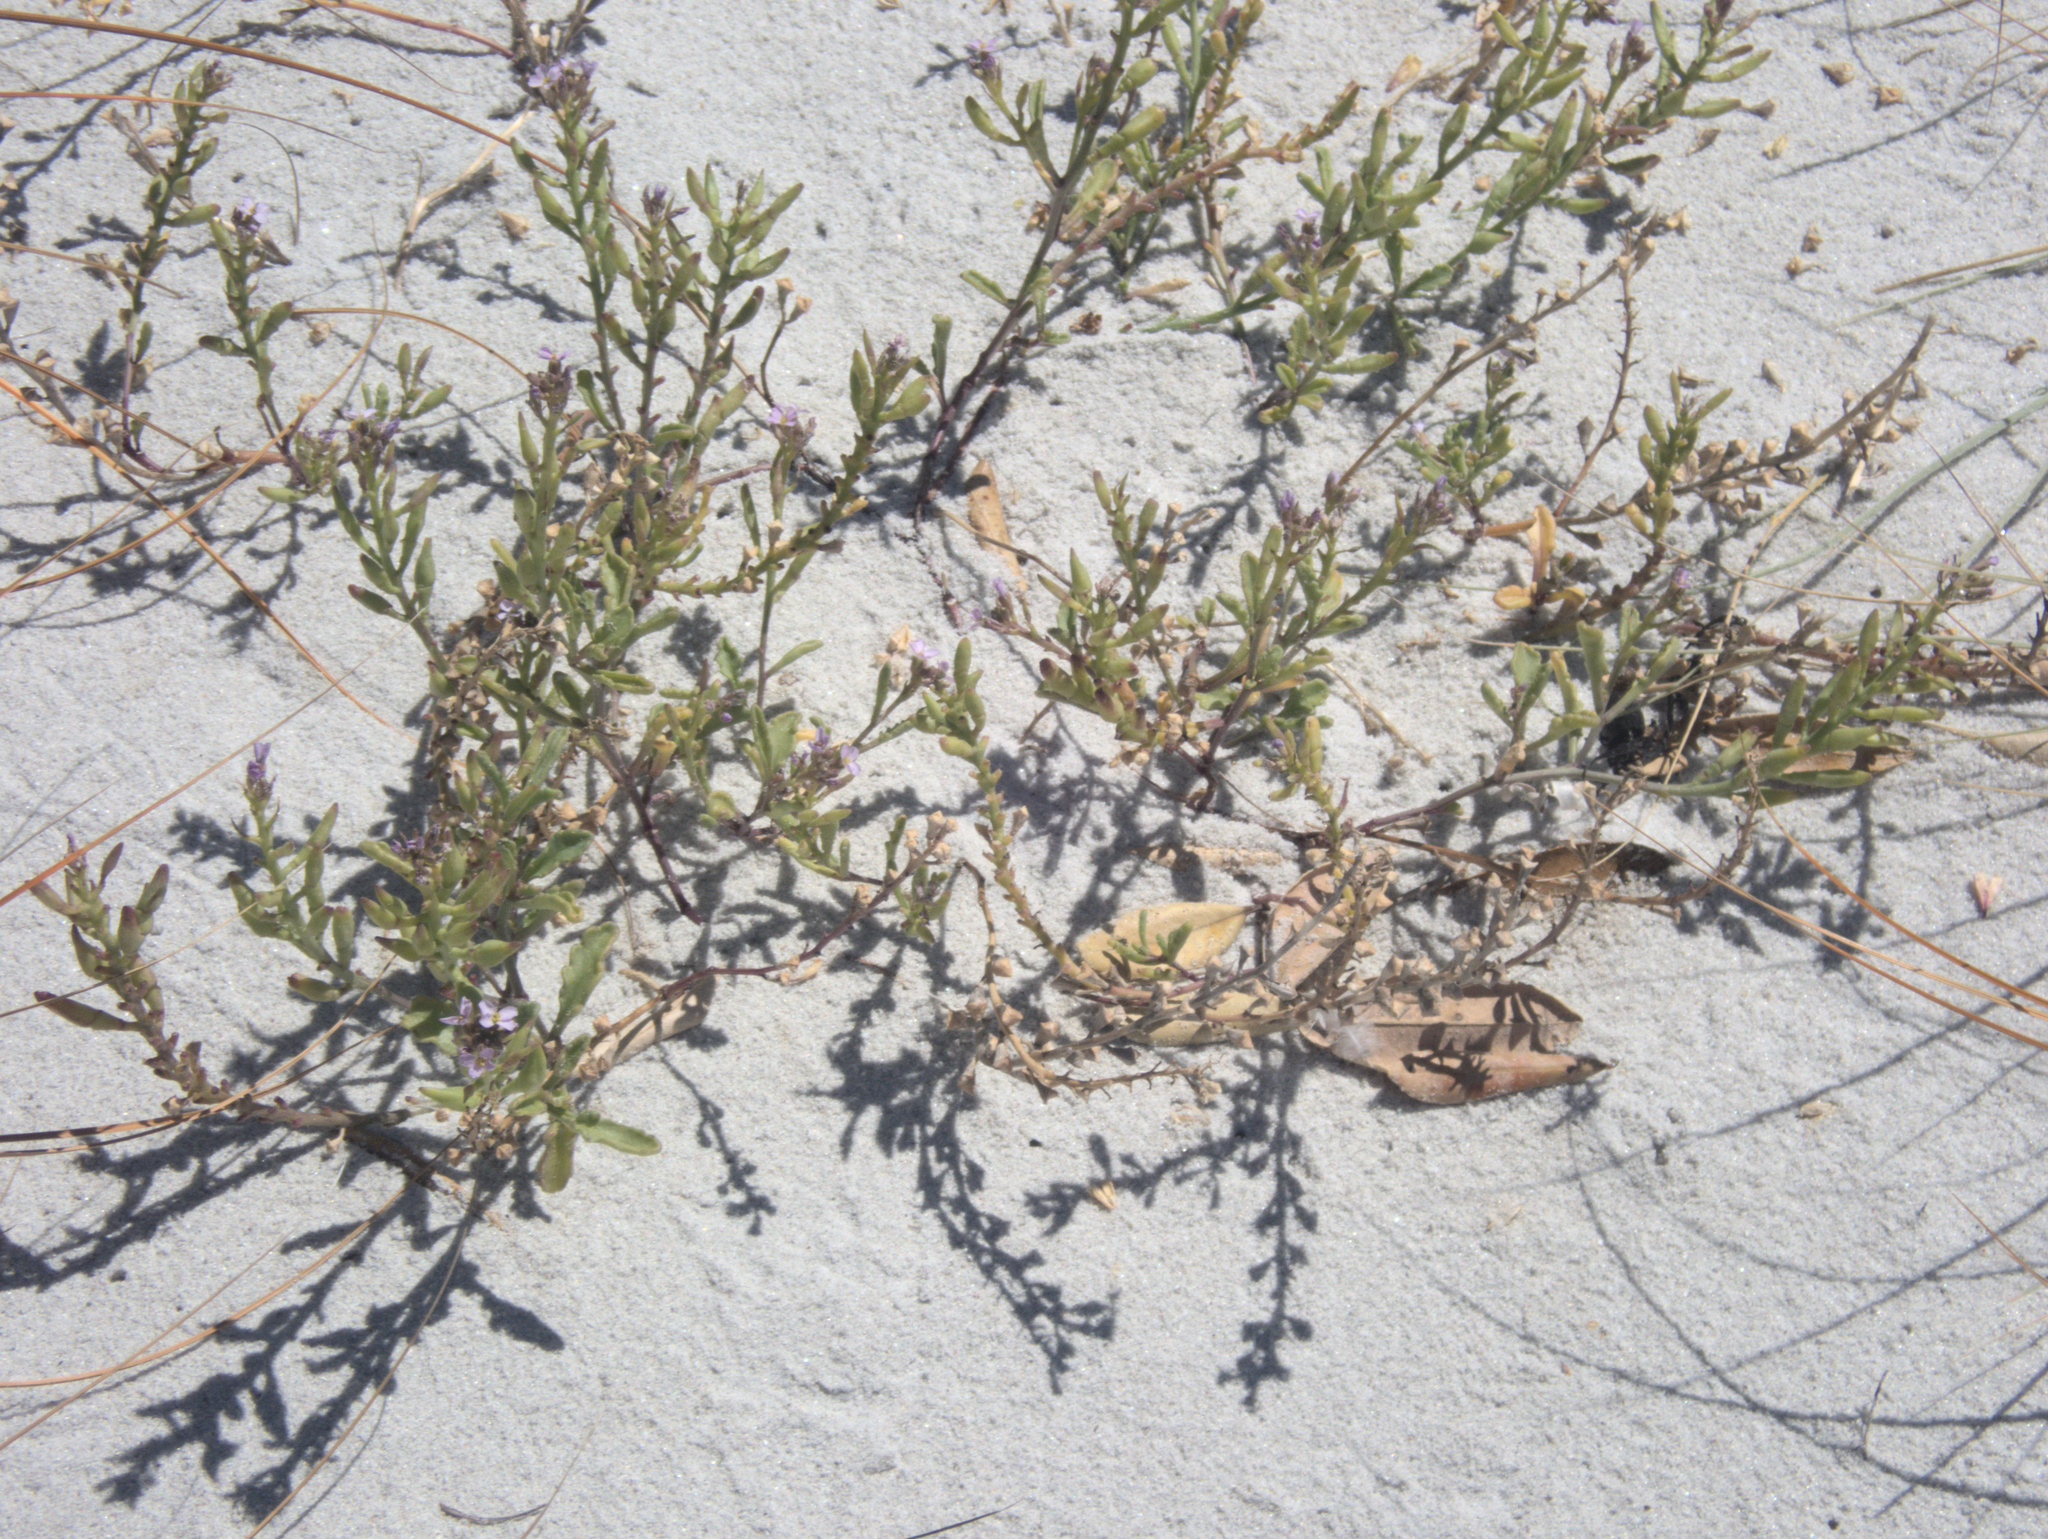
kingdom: Plantae
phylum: Tracheophyta
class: Magnoliopsida
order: Brassicales
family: Brassicaceae
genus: Cakile
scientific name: Cakile maritima
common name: Sea rocket
